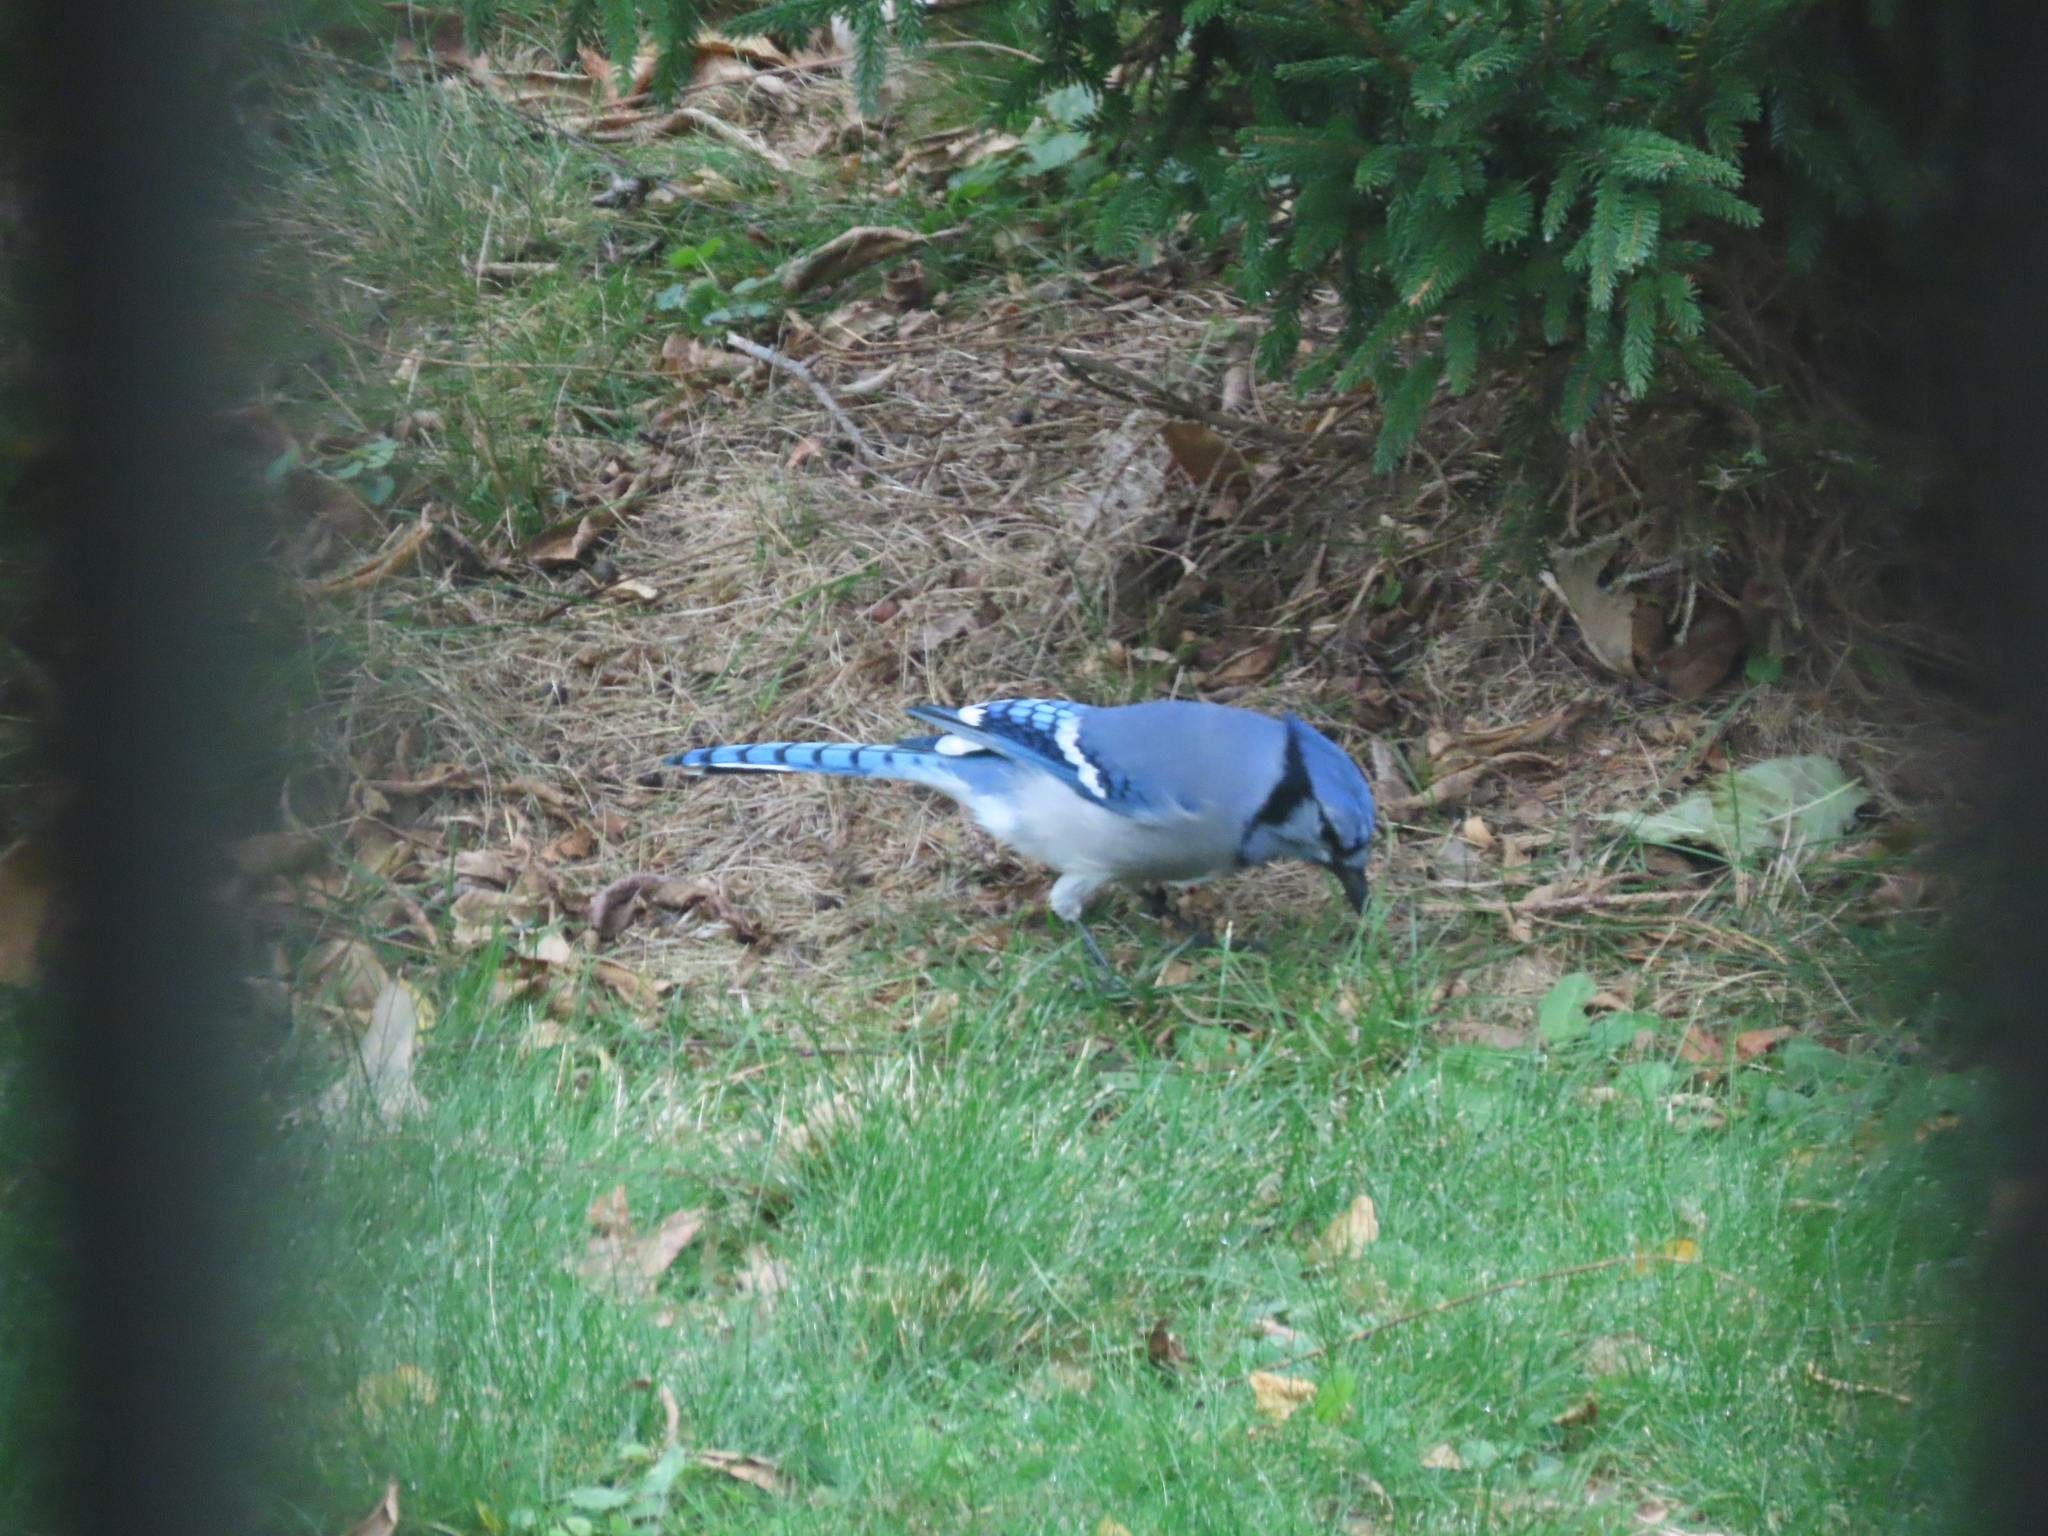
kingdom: Animalia
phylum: Chordata
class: Aves
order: Passeriformes
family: Corvidae
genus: Cyanocitta
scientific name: Cyanocitta cristata
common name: Blue jay
